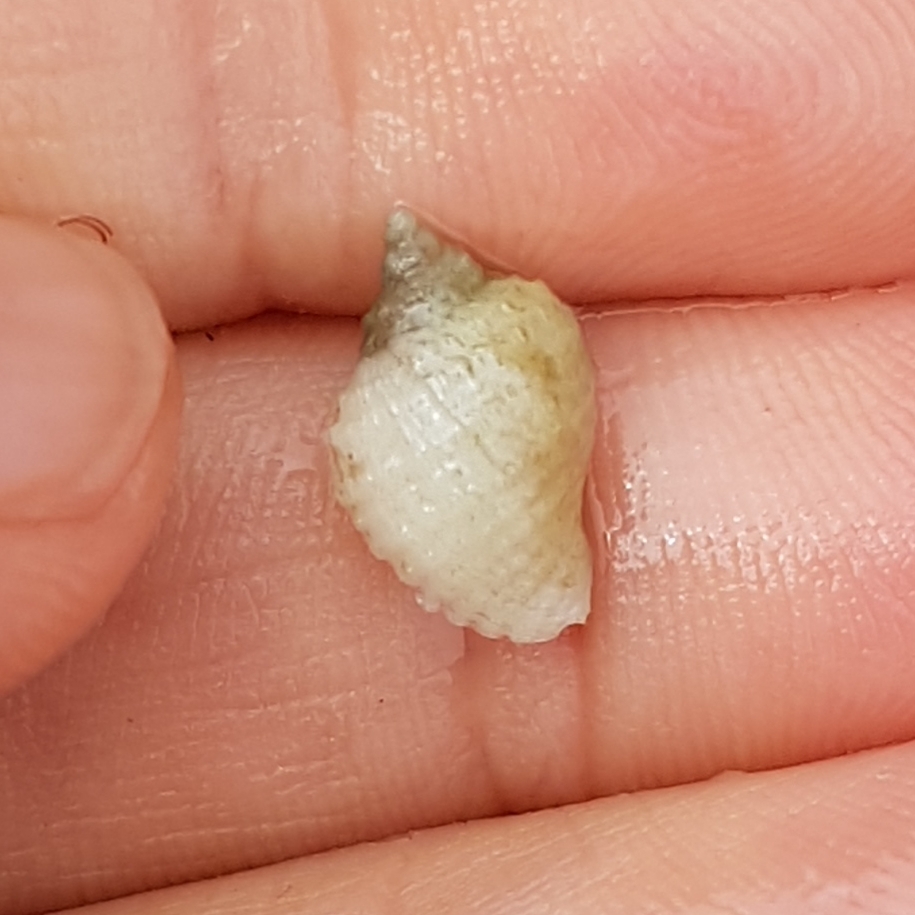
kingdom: Animalia
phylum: Mollusca
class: Gastropoda
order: Neogastropoda
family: Muricidae
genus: Nucella
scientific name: Nucella lapillus
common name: Dog whelk
